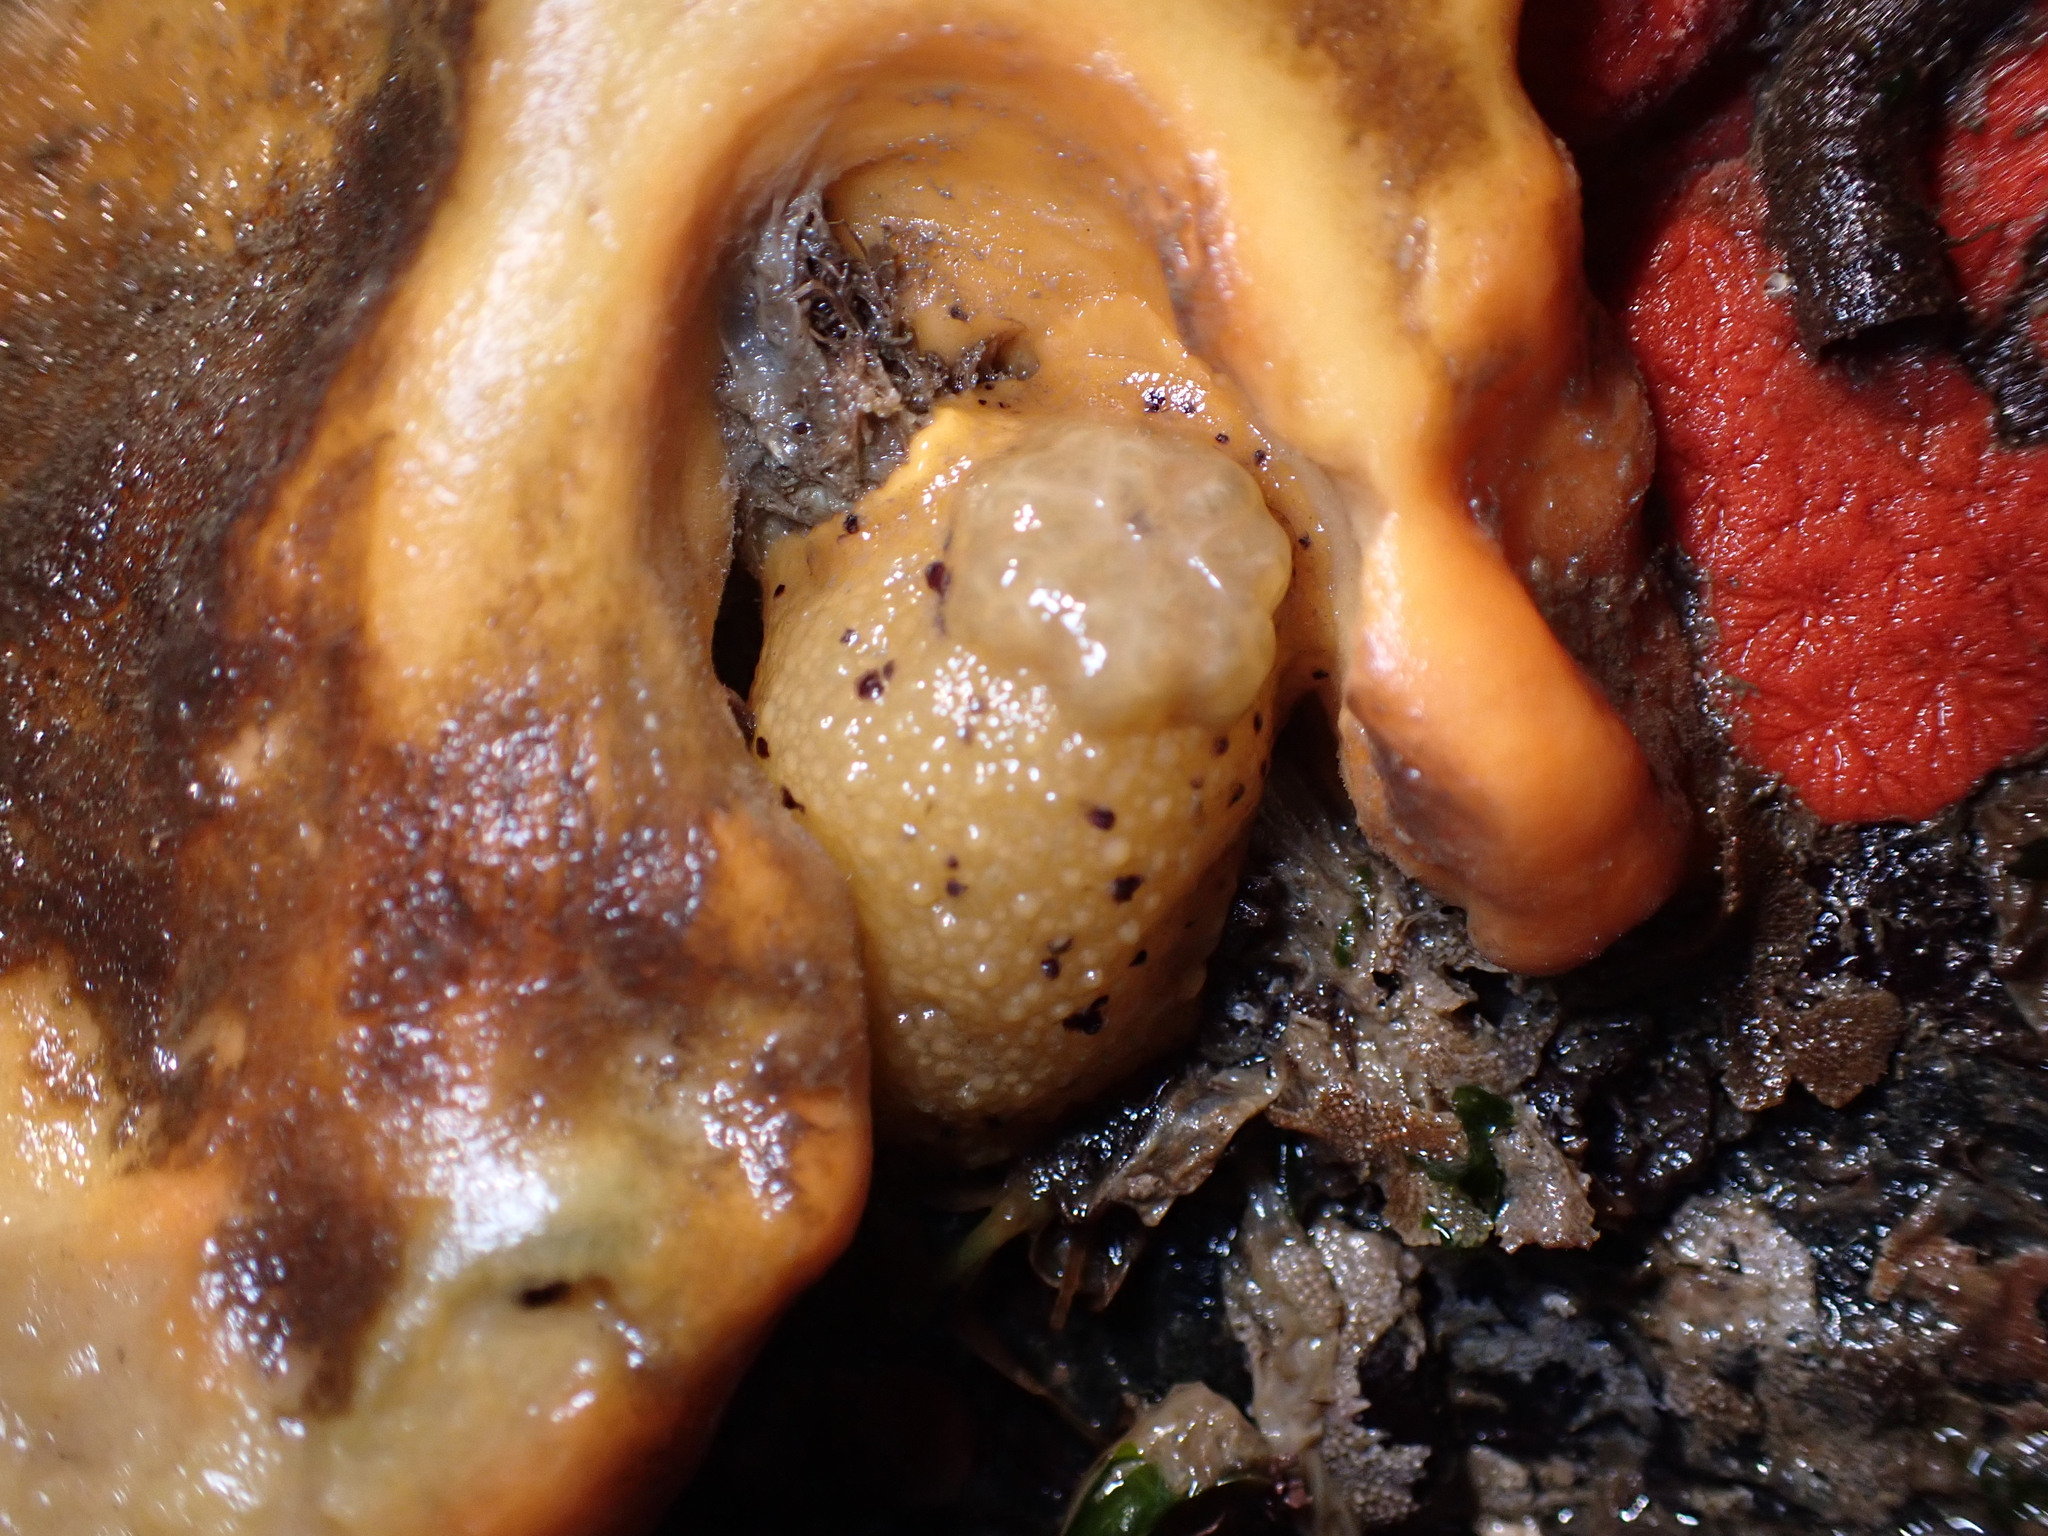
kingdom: Animalia
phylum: Mollusca
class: Gastropoda
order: Nudibranchia
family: Dorididae
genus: Doris
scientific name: Doris montereyensis
